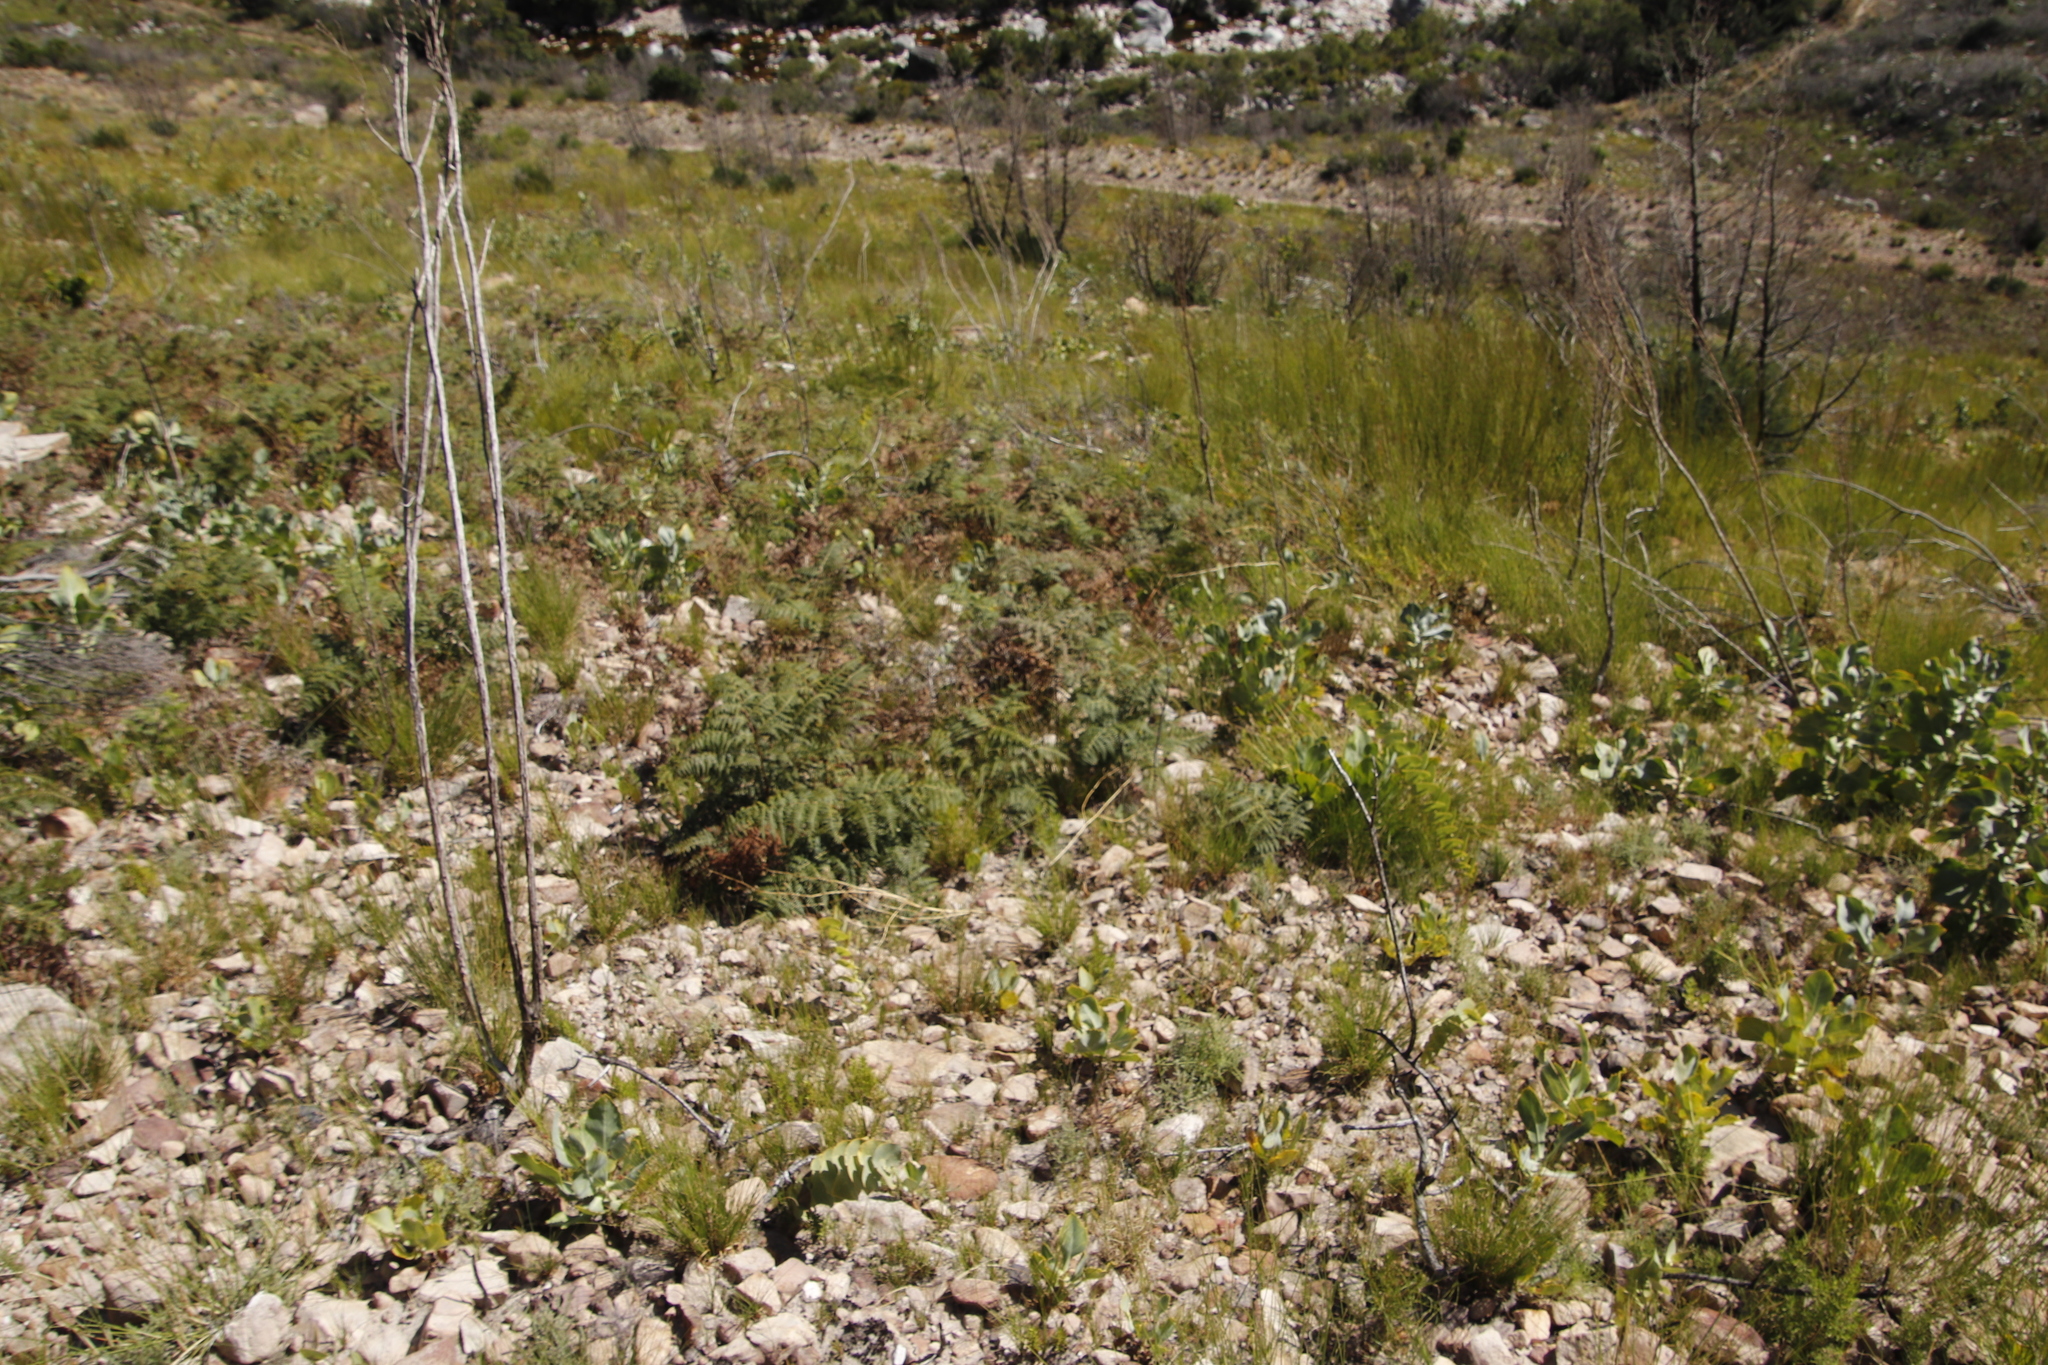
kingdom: Plantae
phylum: Tracheophyta
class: Polypodiopsida
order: Polypodiales
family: Dennstaedtiaceae
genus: Pteridium
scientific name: Pteridium aquilinum
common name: Bracken
